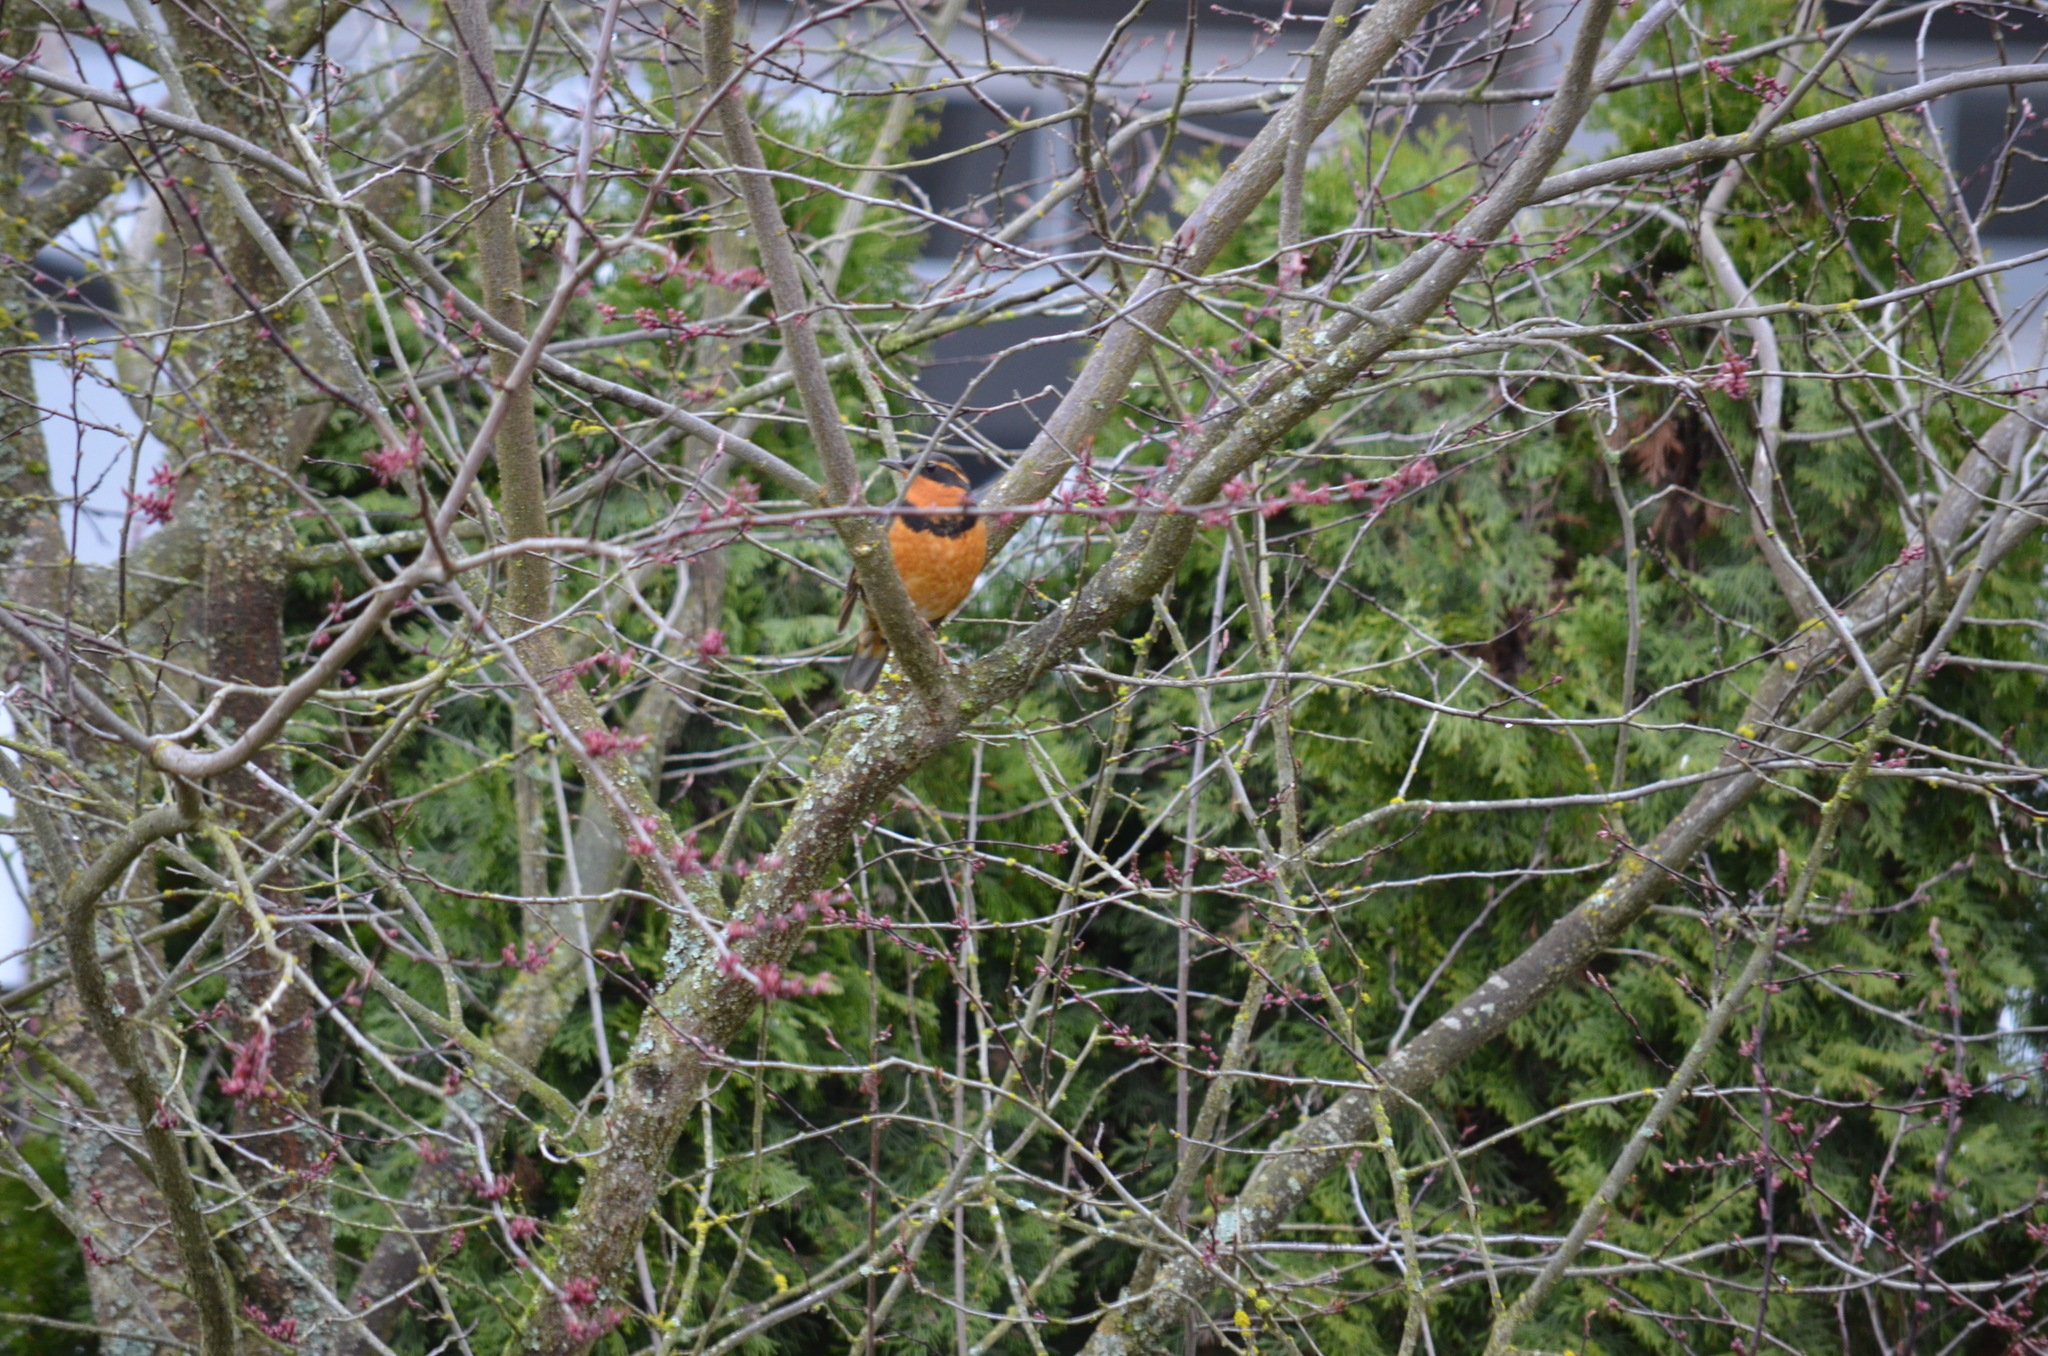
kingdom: Animalia
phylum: Chordata
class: Aves
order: Passeriformes
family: Turdidae
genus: Ixoreus
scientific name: Ixoreus naevius
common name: Varied thrush
